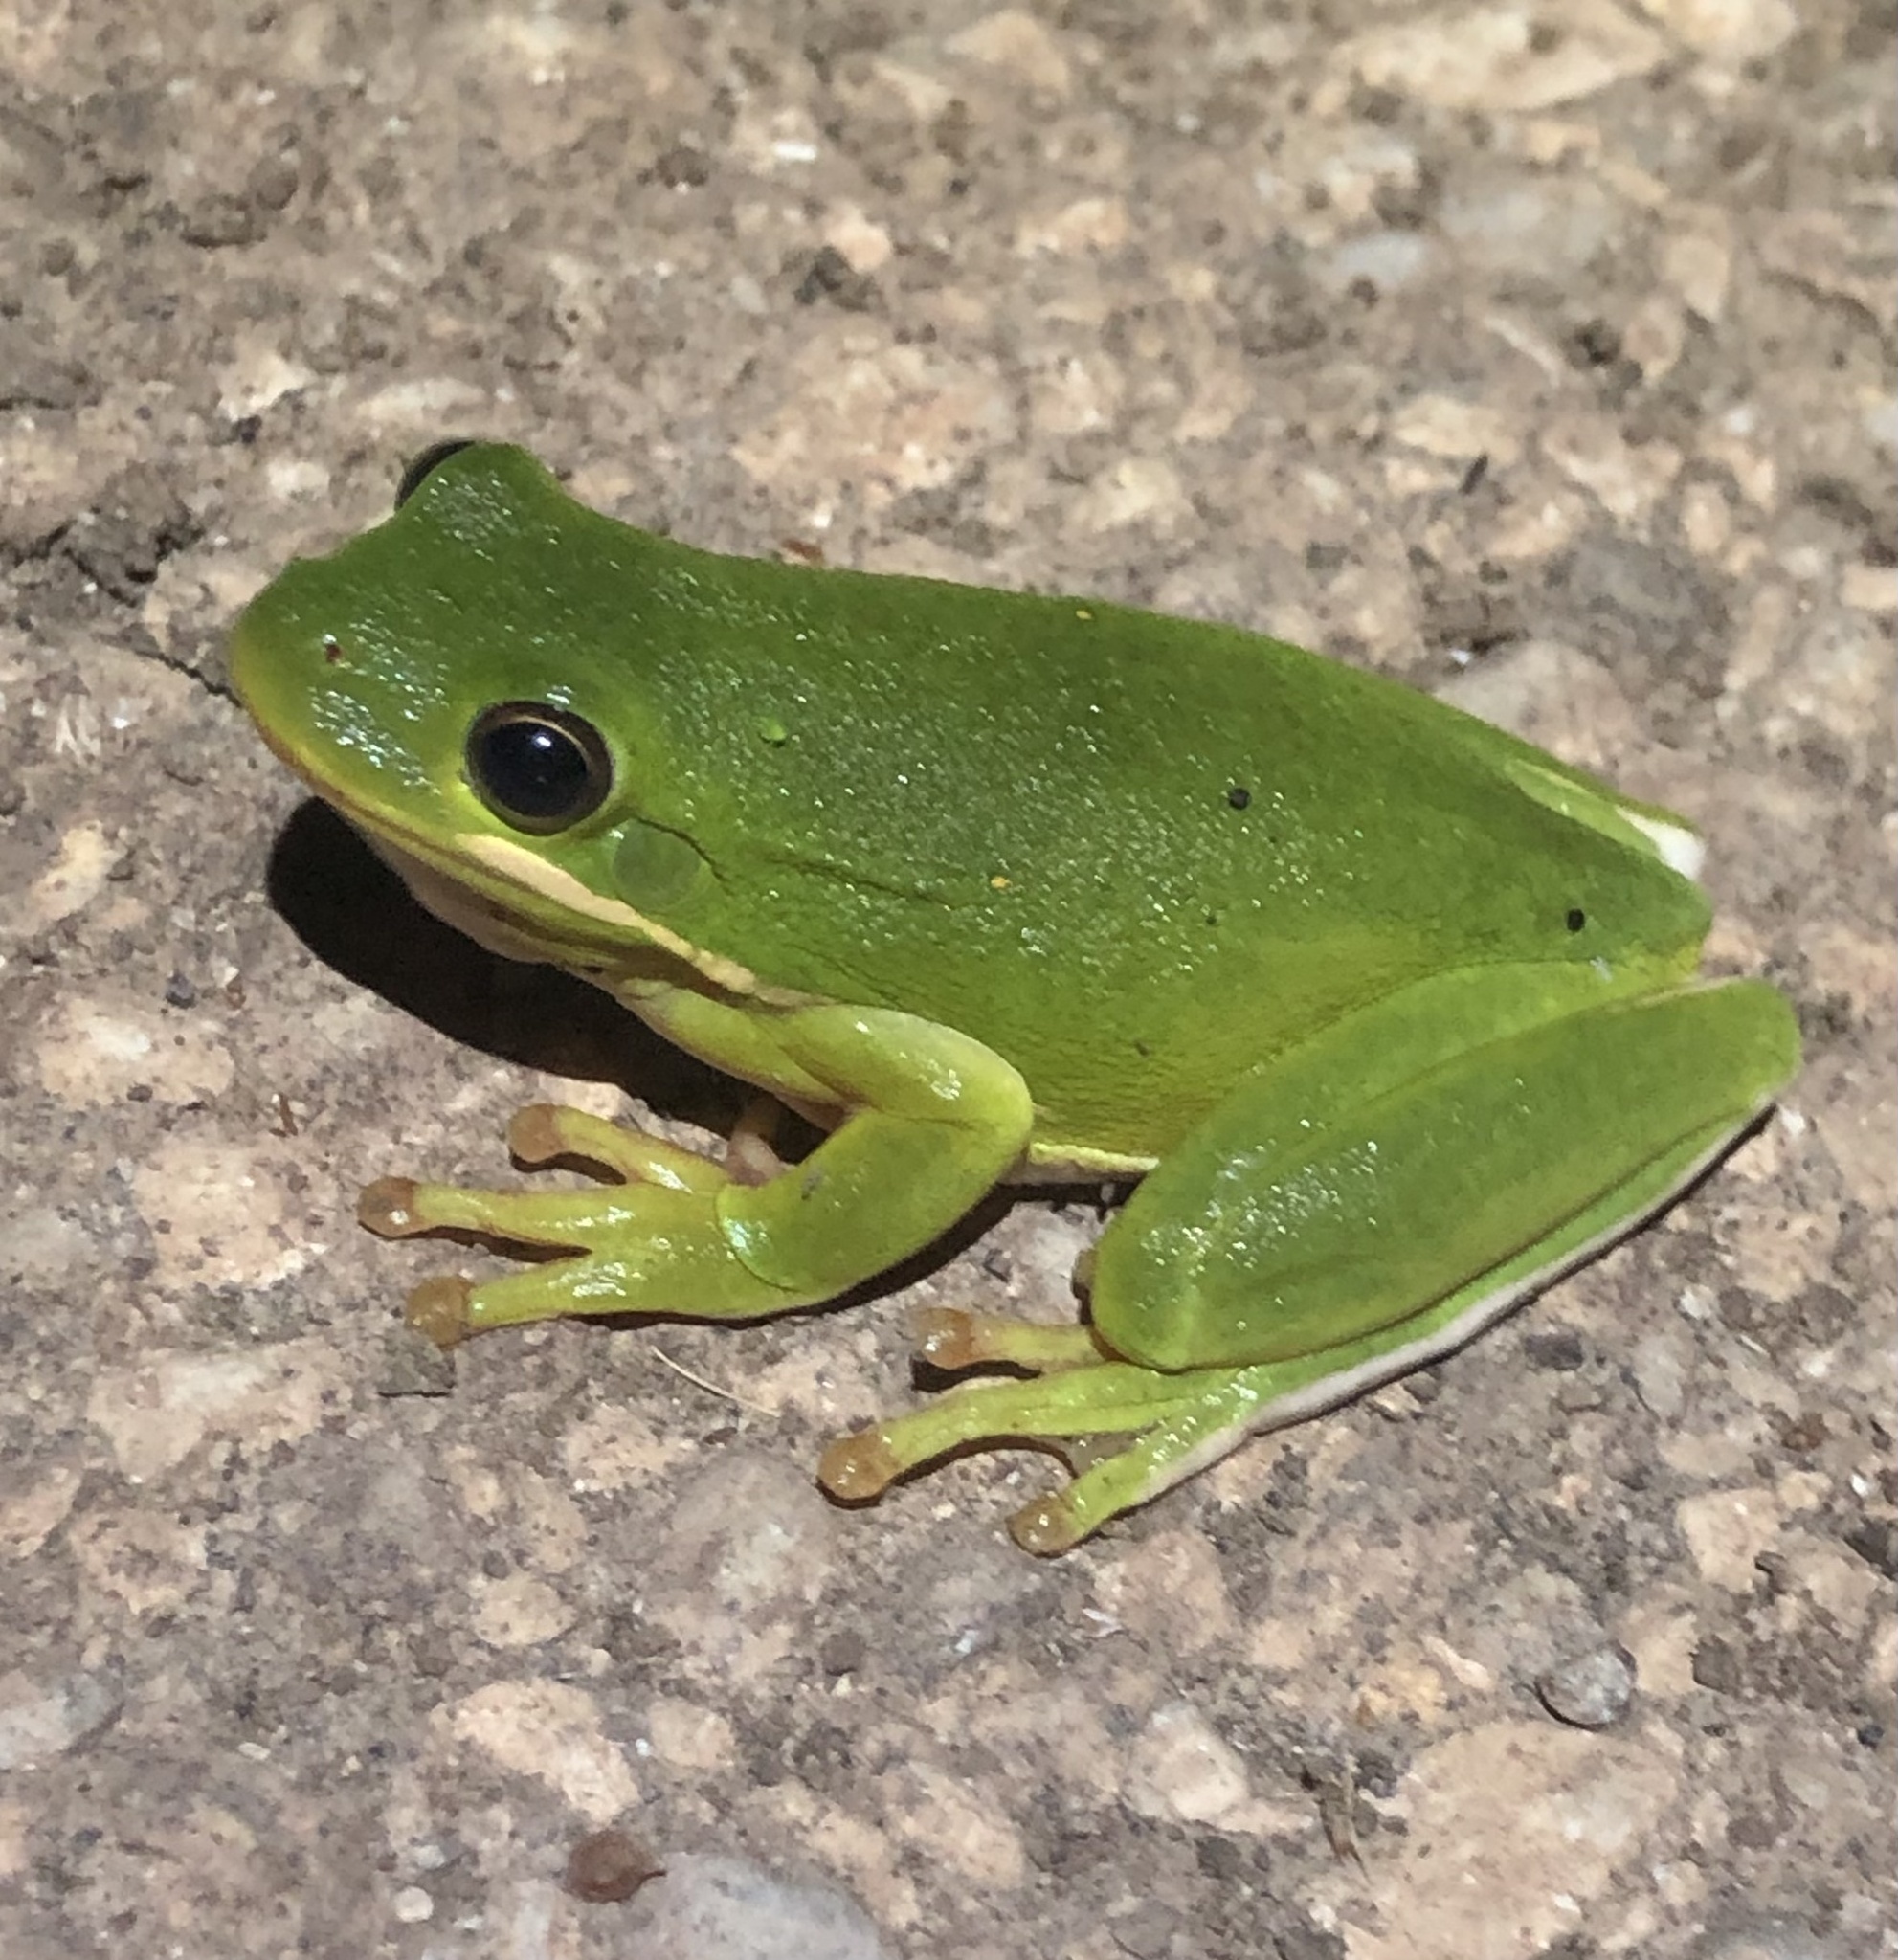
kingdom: Animalia
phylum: Chordata
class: Amphibia
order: Anura
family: Hylidae
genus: Dryophytes
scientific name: Dryophytes cinereus
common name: Green treefrog
